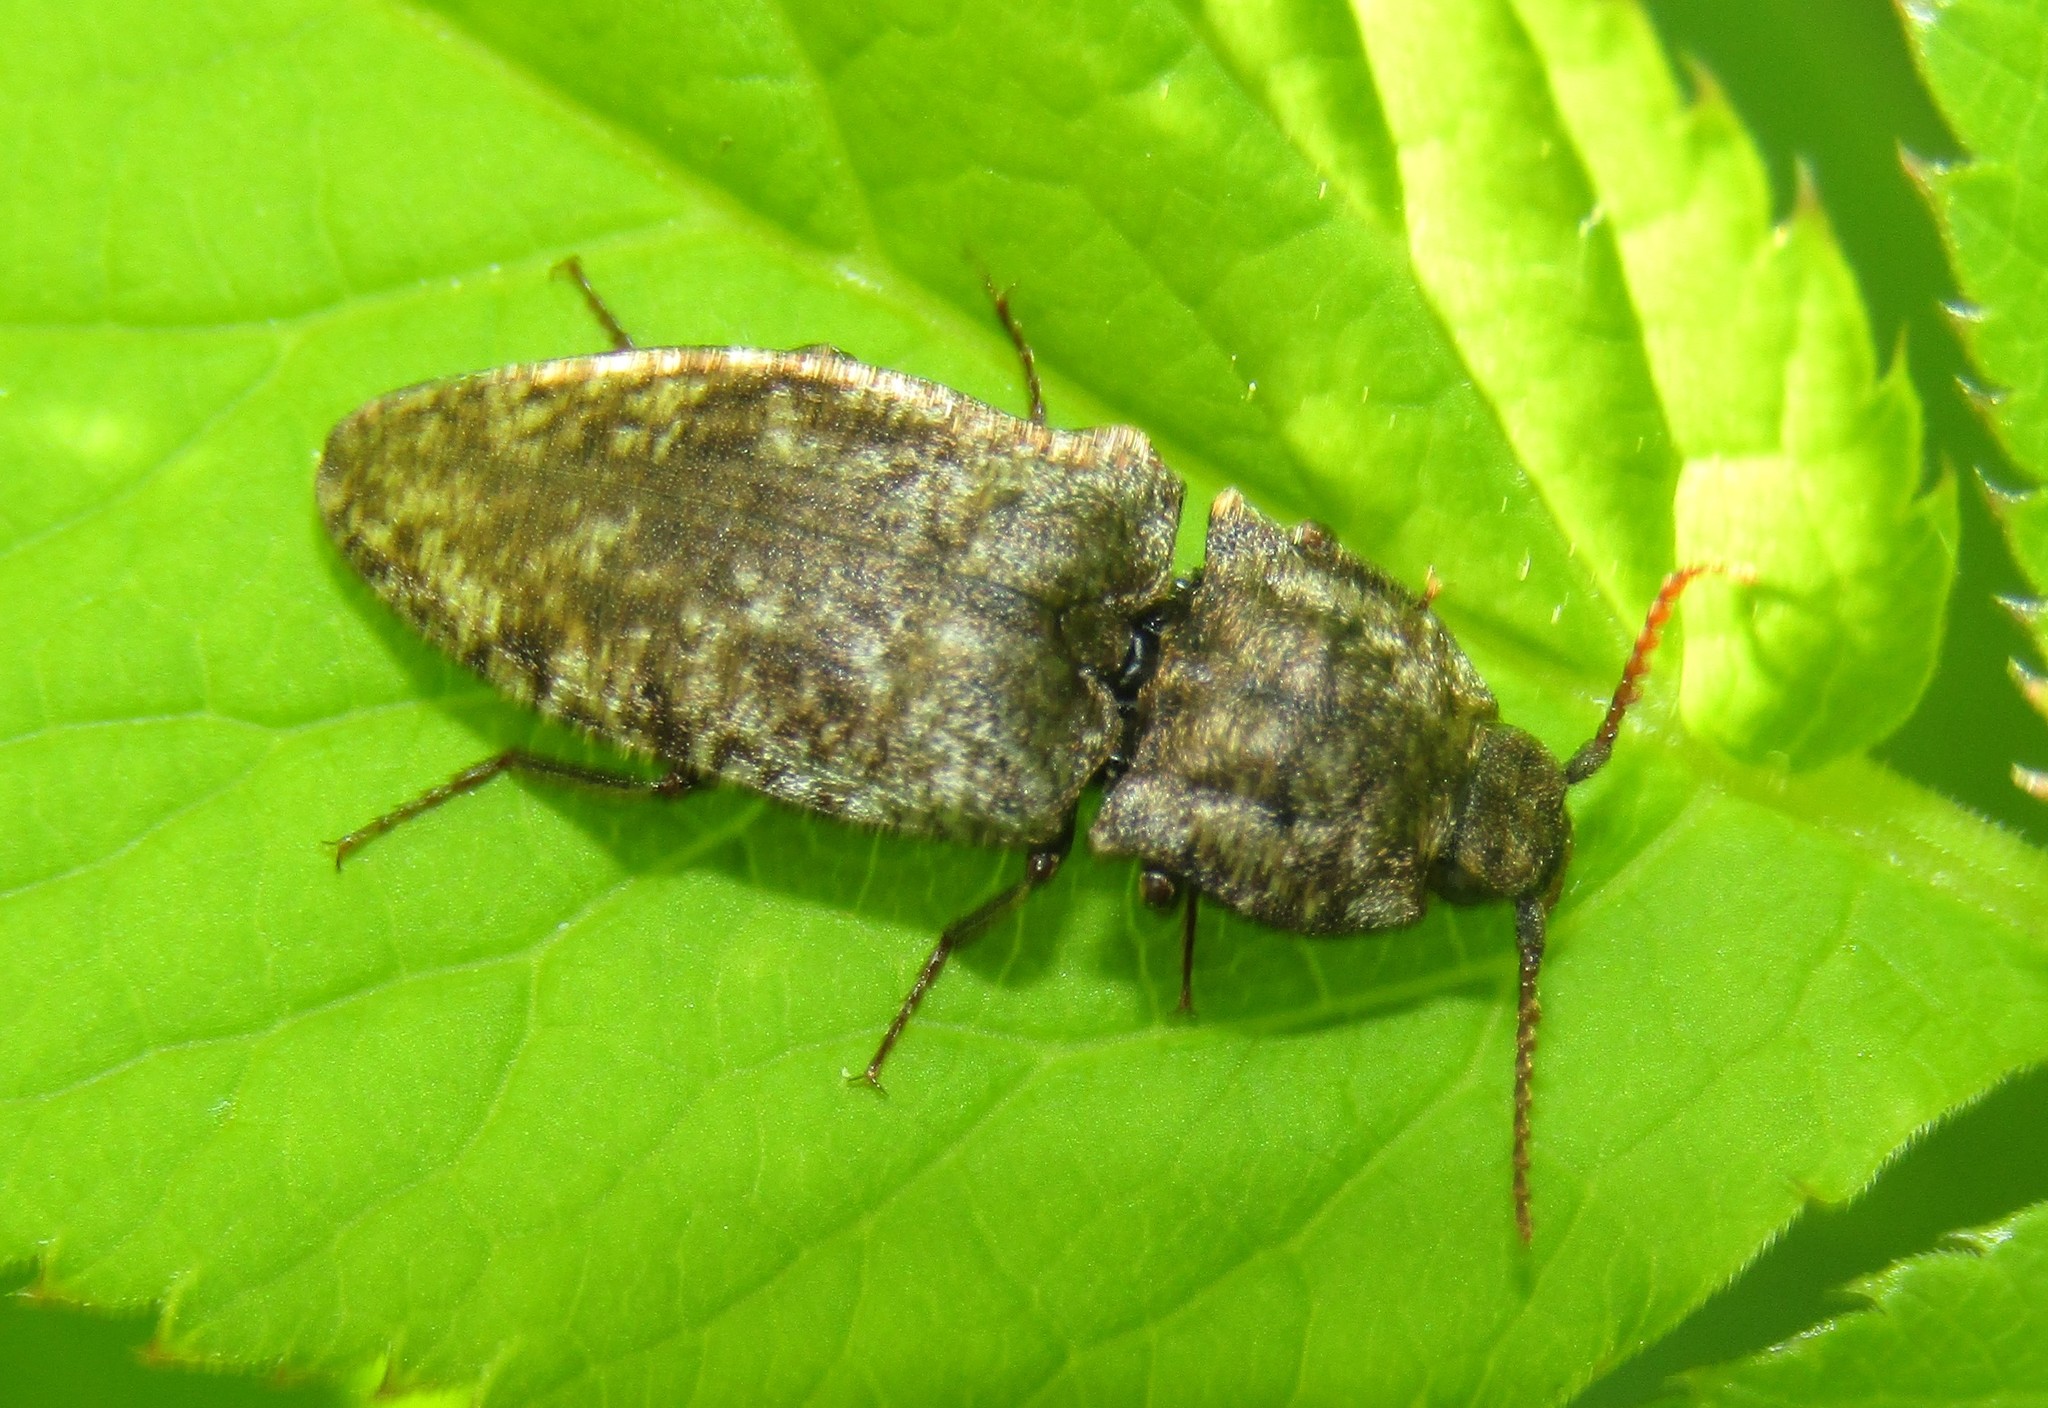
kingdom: Animalia
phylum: Arthropoda
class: Insecta
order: Coleoptera
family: Elateridae
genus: Agrypnus
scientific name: Agrypnus murinus
